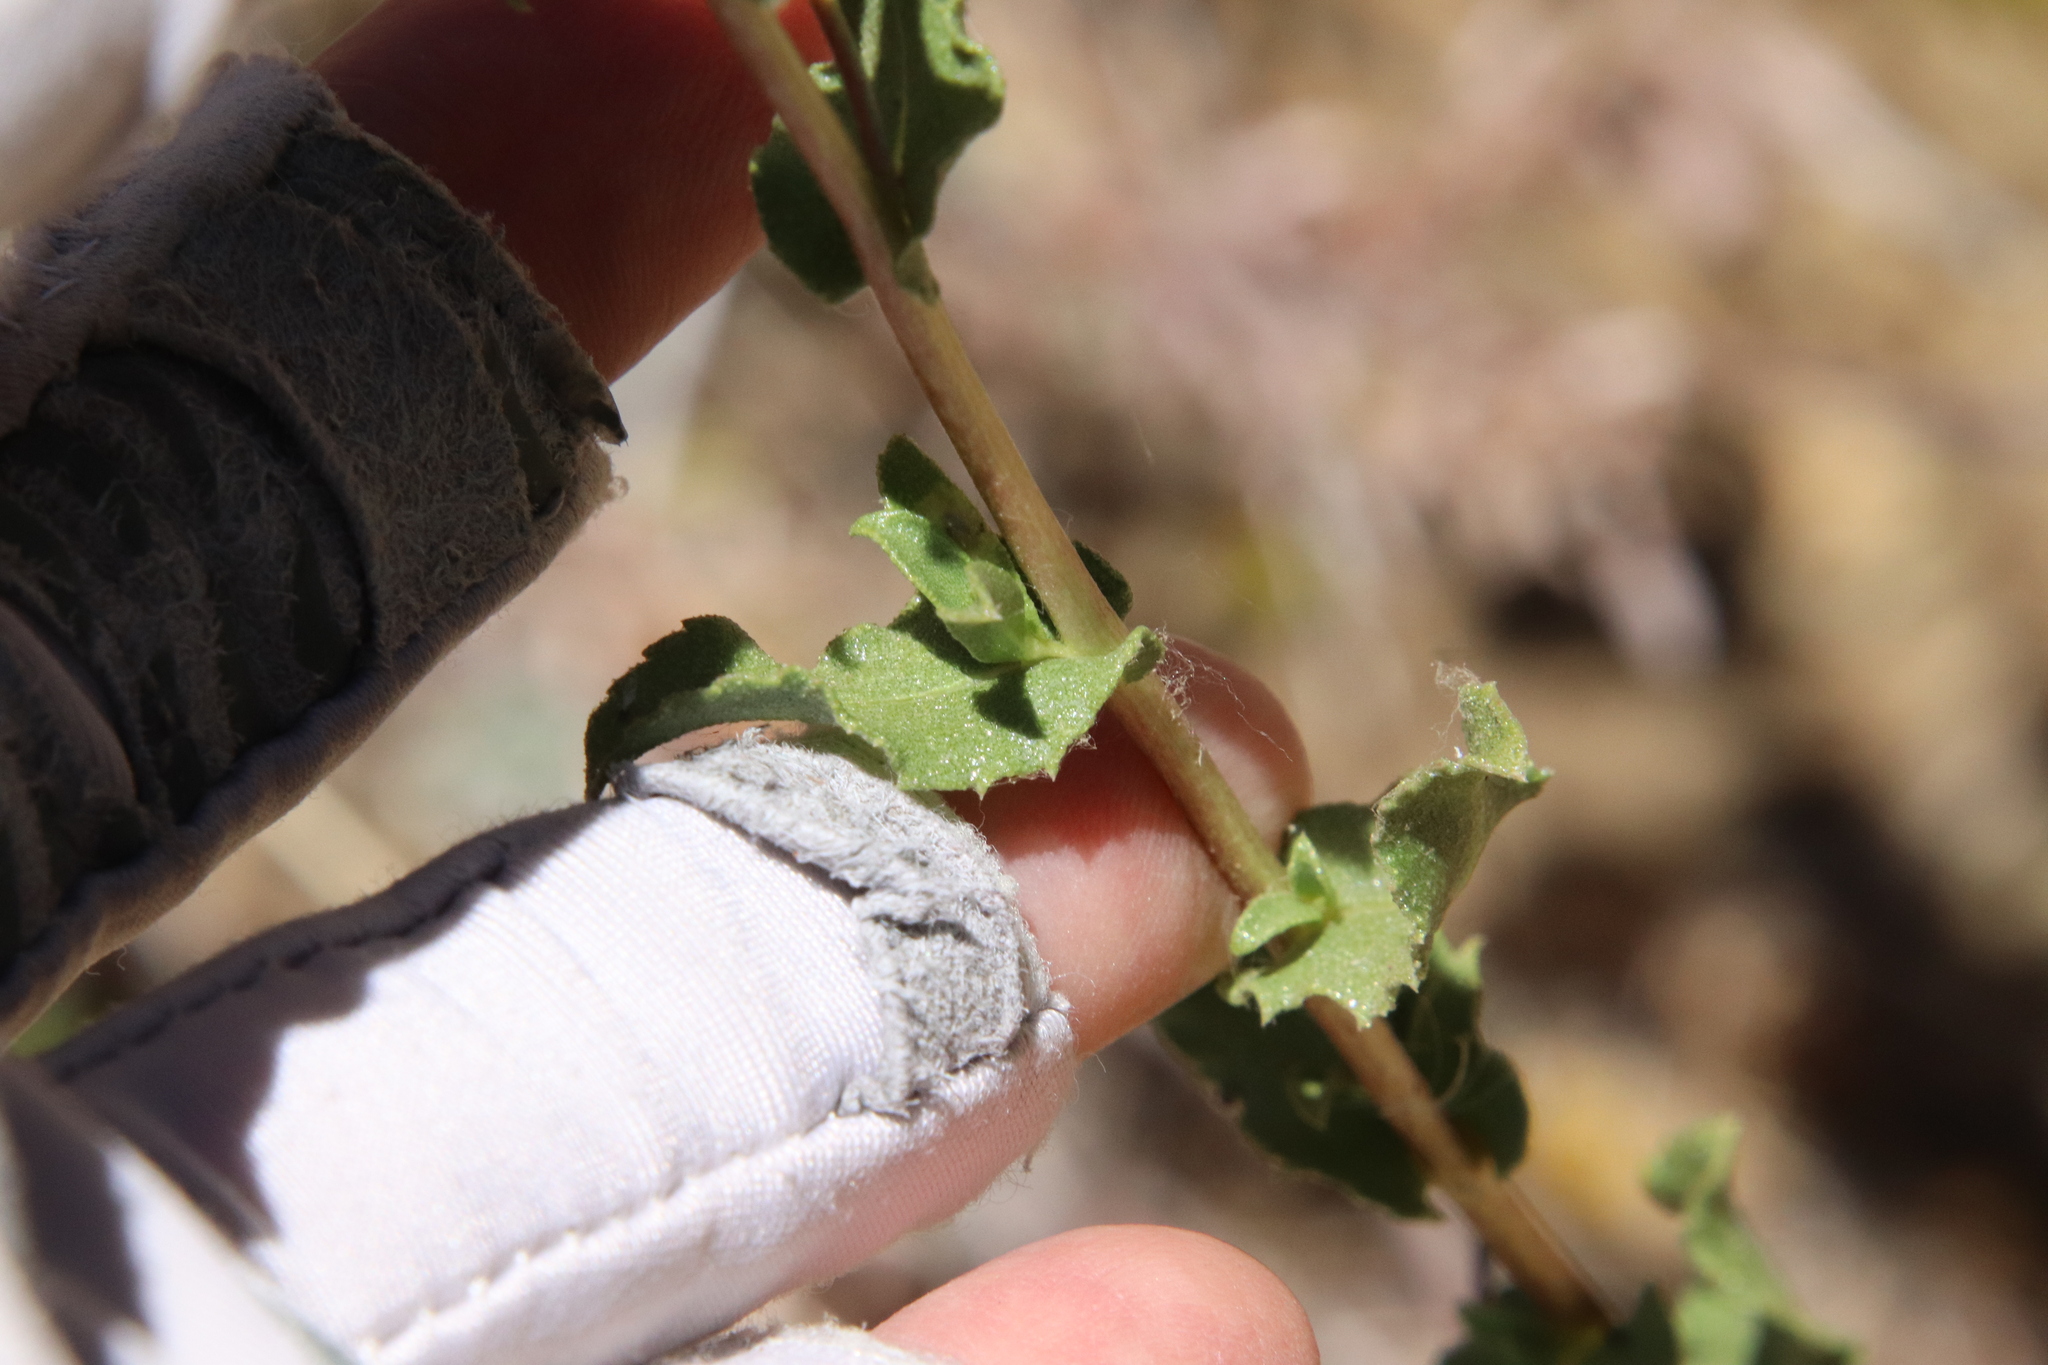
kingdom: Plantae
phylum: Tracheophyta
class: Magnoliopsida
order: Asterales
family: Asteraceae
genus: Grindelia
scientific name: Grindelia hirsutula
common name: Hairy gumweed
